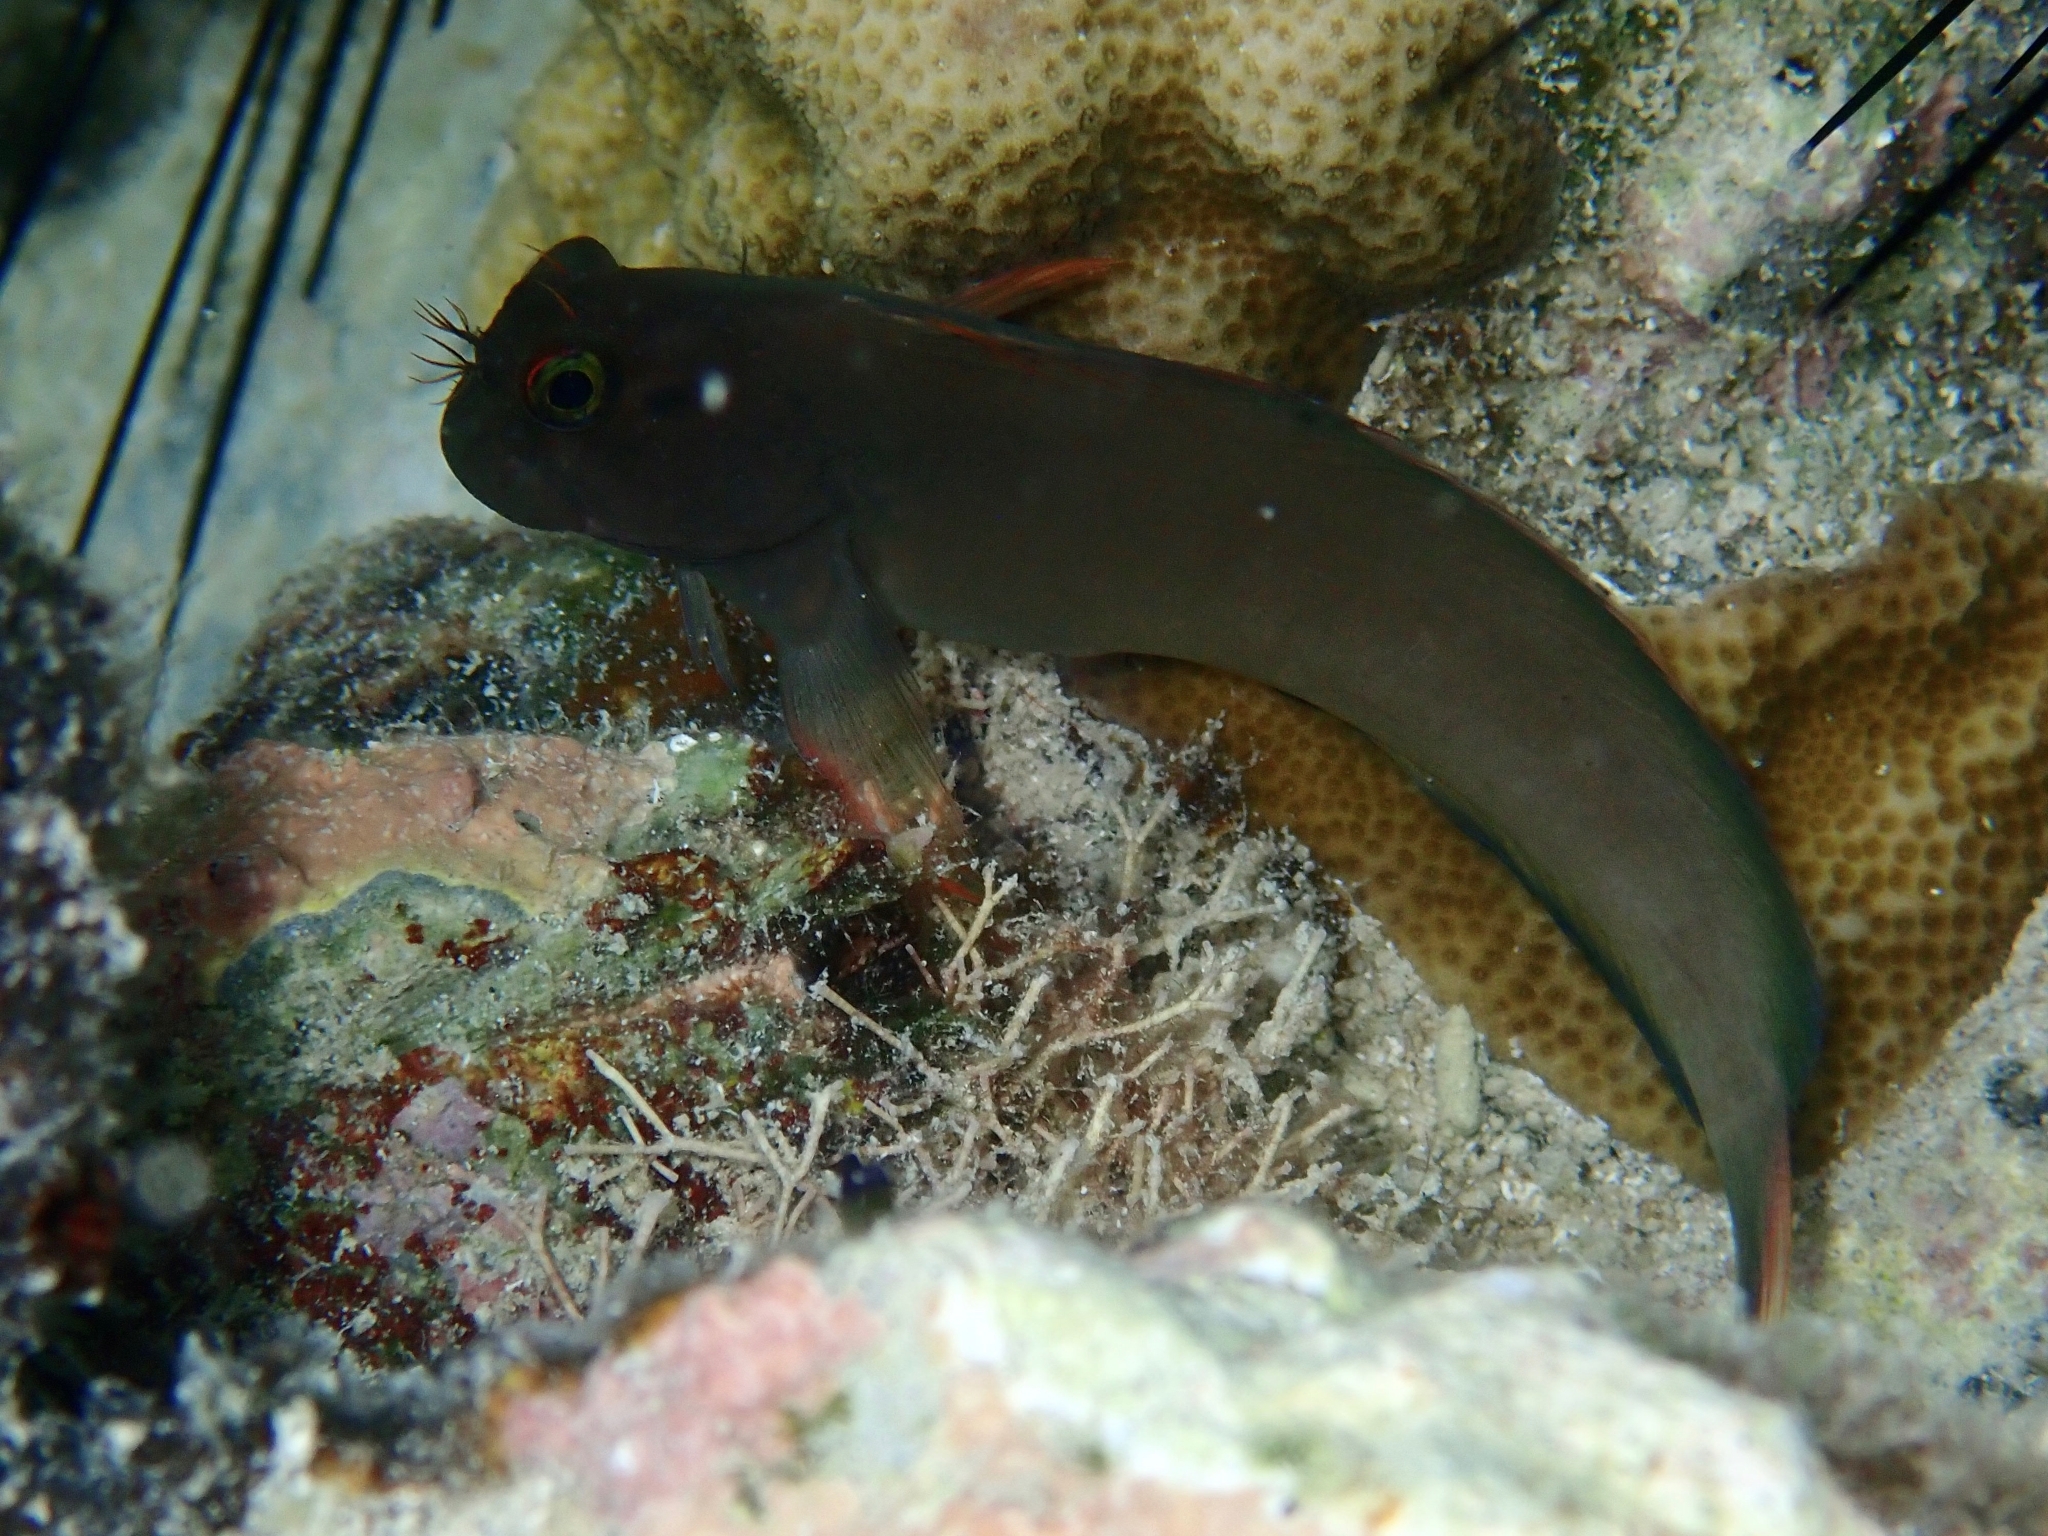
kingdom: Animalia
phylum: Chordata
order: Perciformes
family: Blenniidae
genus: Ophioblennius
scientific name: Ophioblennius macclurei
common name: Redlip blenny
